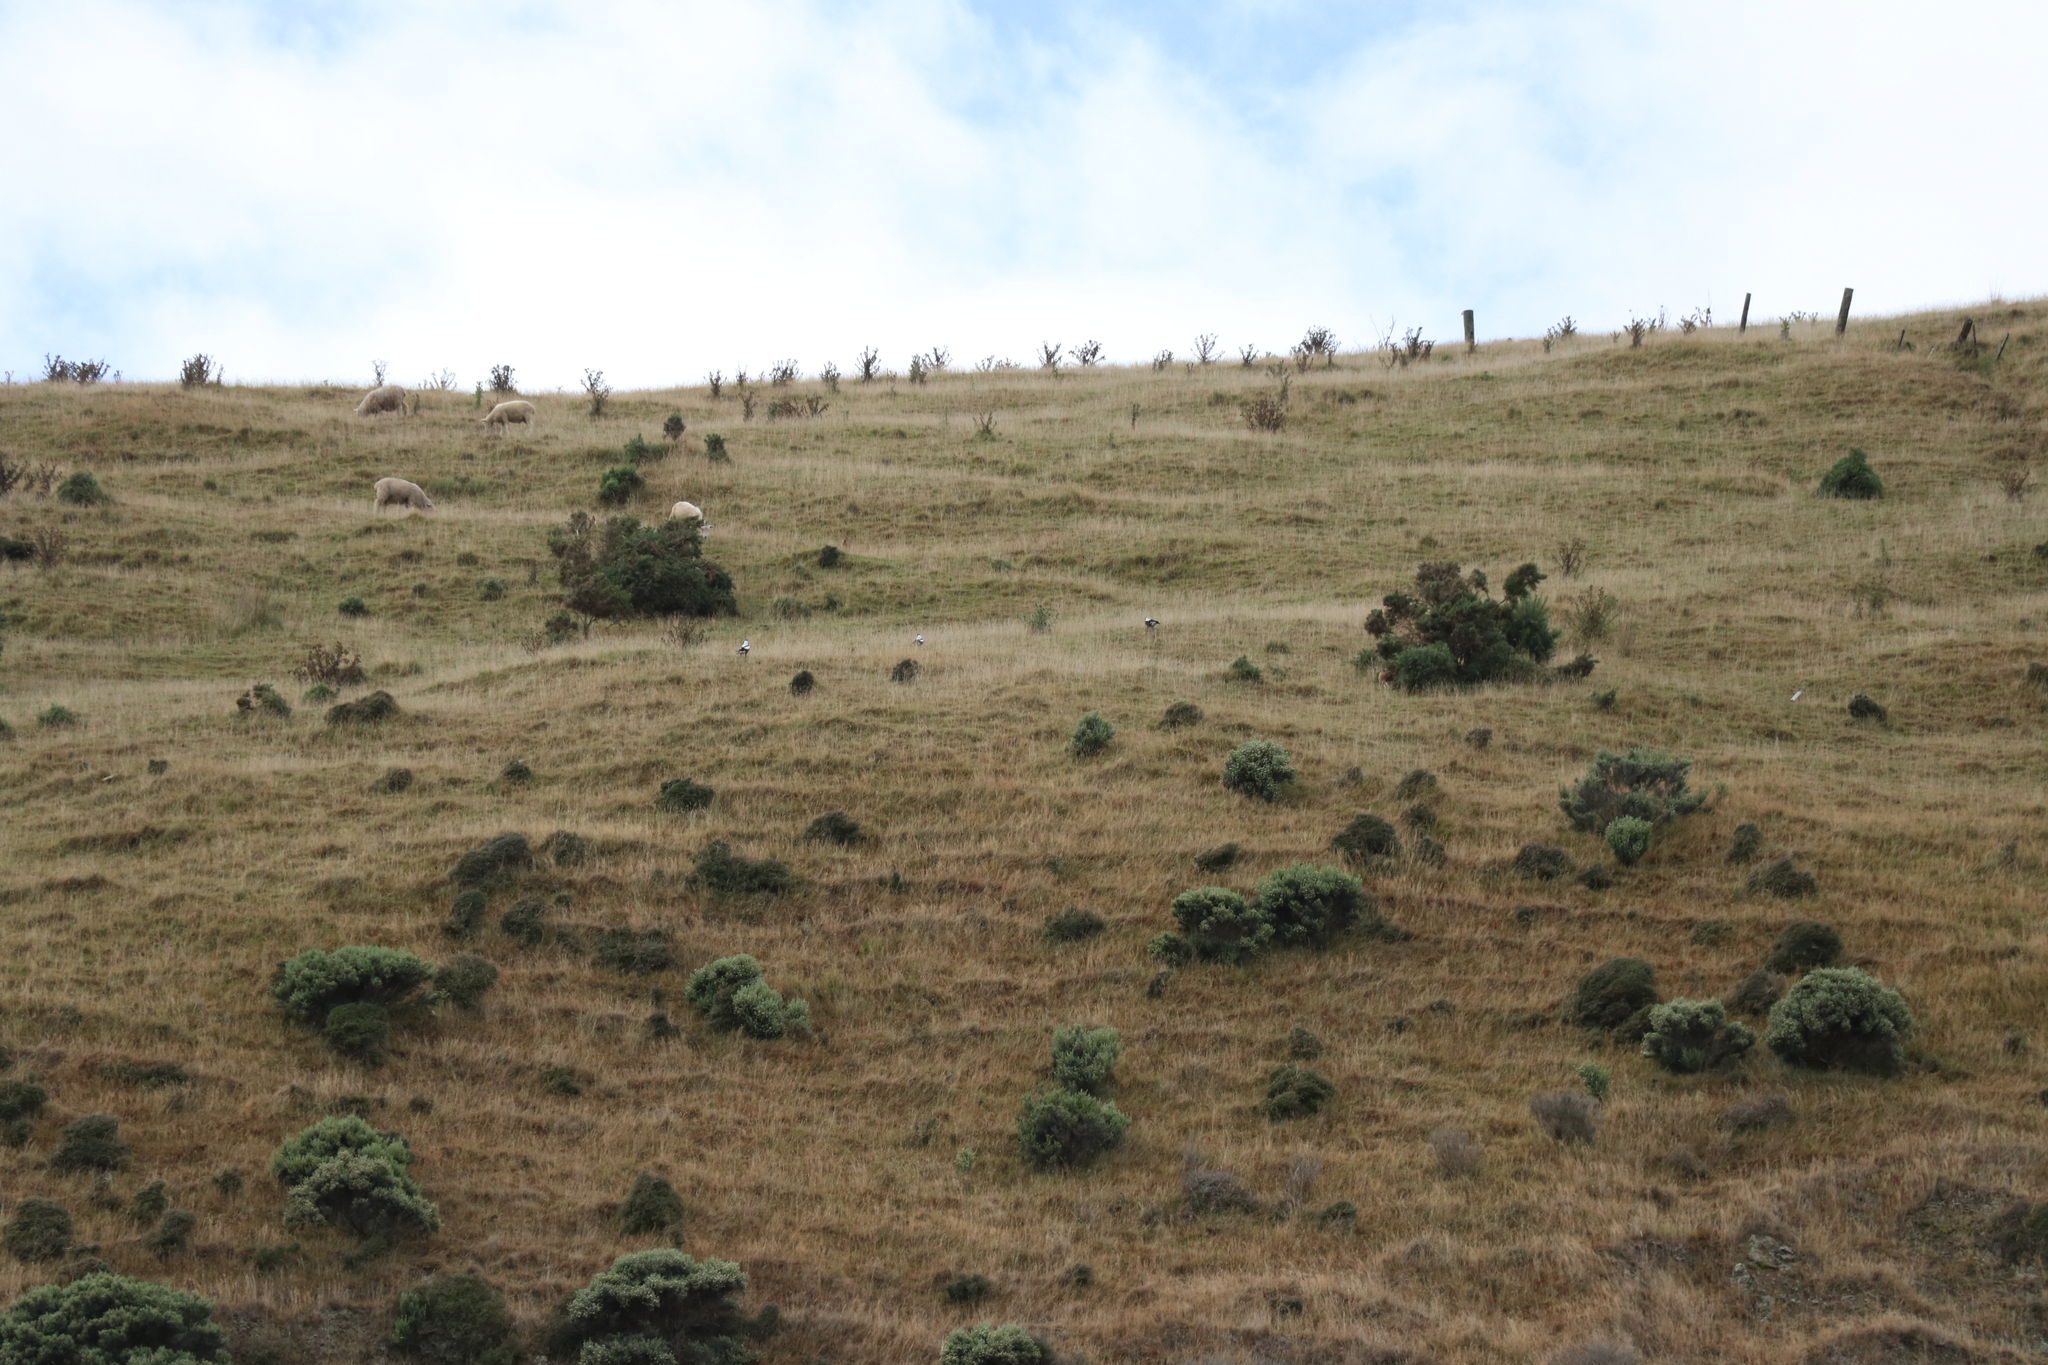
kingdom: Animalia
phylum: Chordata
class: Aves
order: Passeriformes
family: Cracticidae
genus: Gymnorhina
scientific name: Gymnorhina tibicen
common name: Australian magpie
